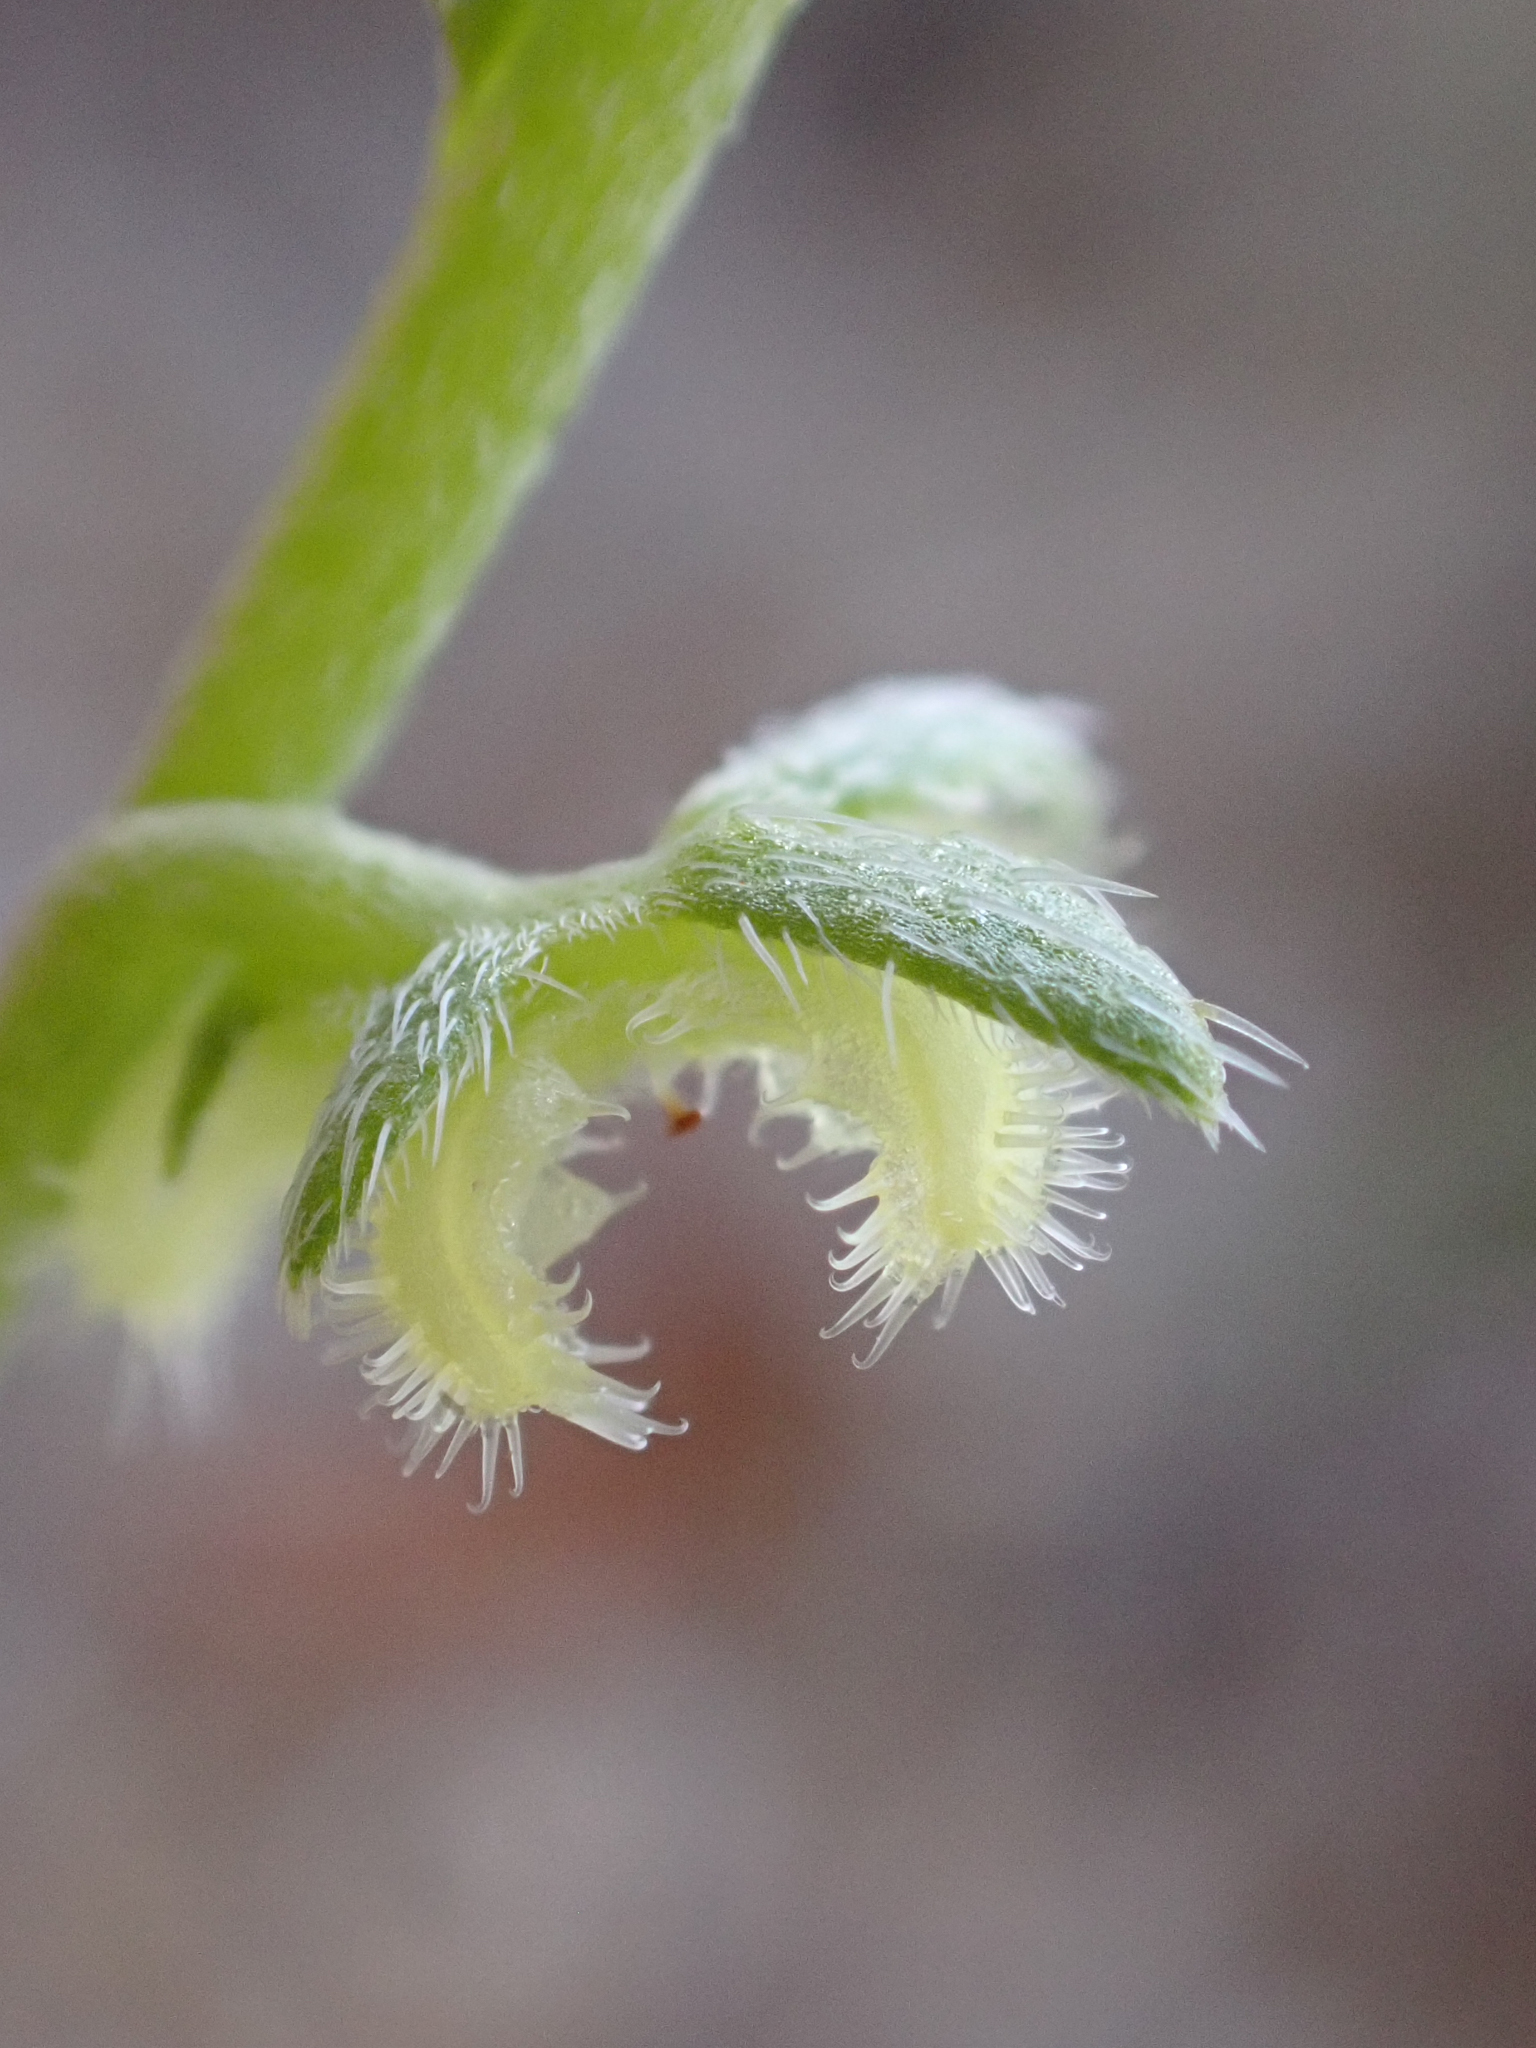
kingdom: Plantae
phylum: Tracheophyta
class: Magnoliopsida
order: Boraginales
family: Boraginaceae
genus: Pectocarya
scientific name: Pectocarya heterocarpa
